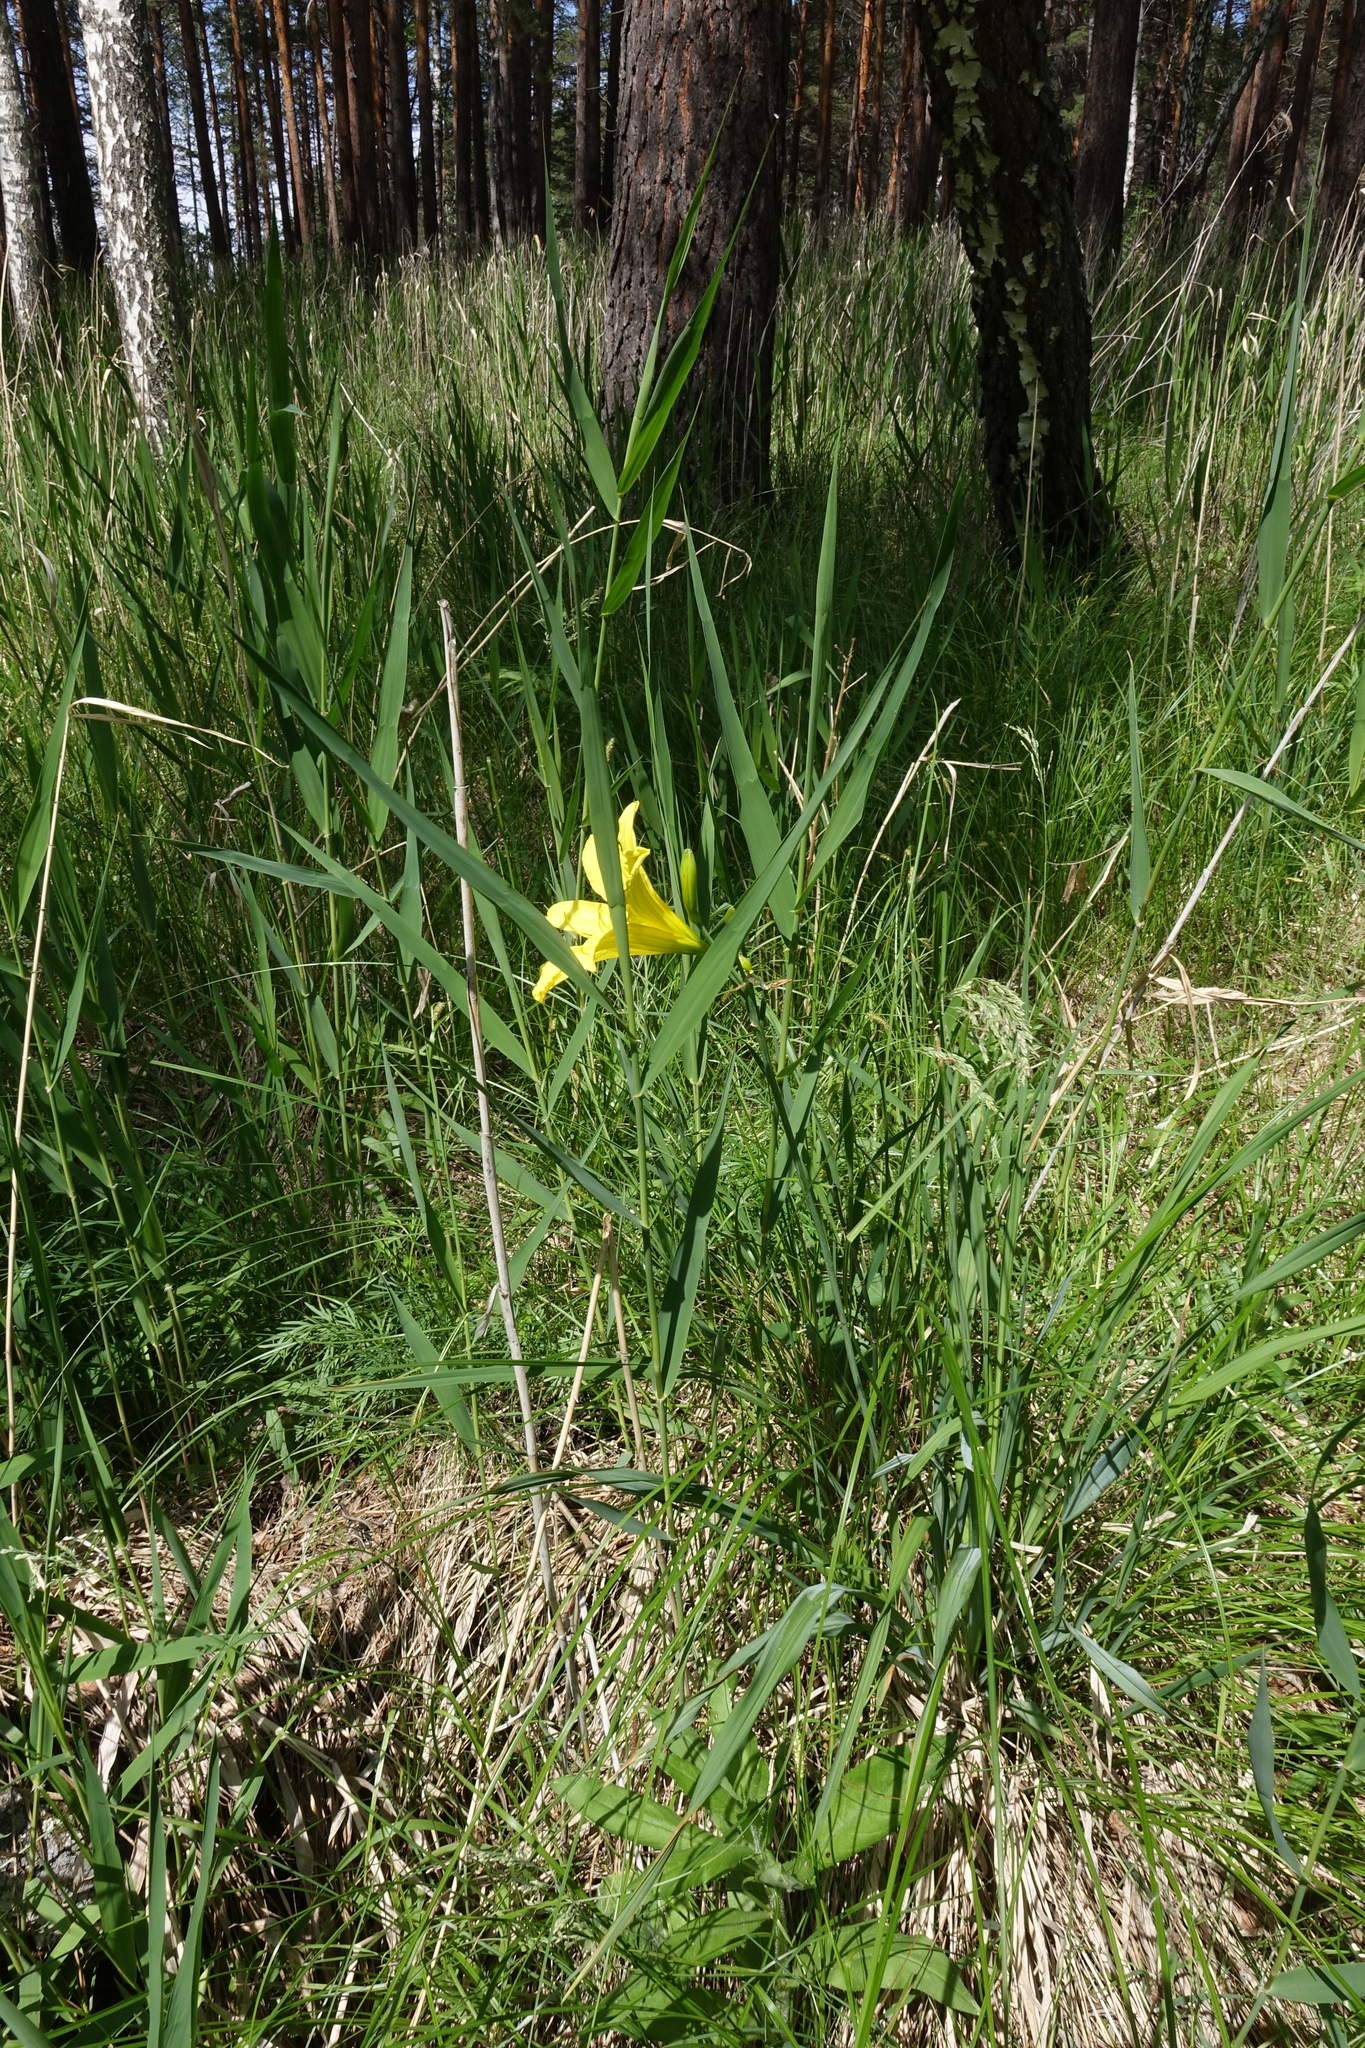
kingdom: Plantae
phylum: Tracheophyta
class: Liliopsida
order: Poales
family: Poaceae
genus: Phragmites
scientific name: Phragmites australis
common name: Common reed
